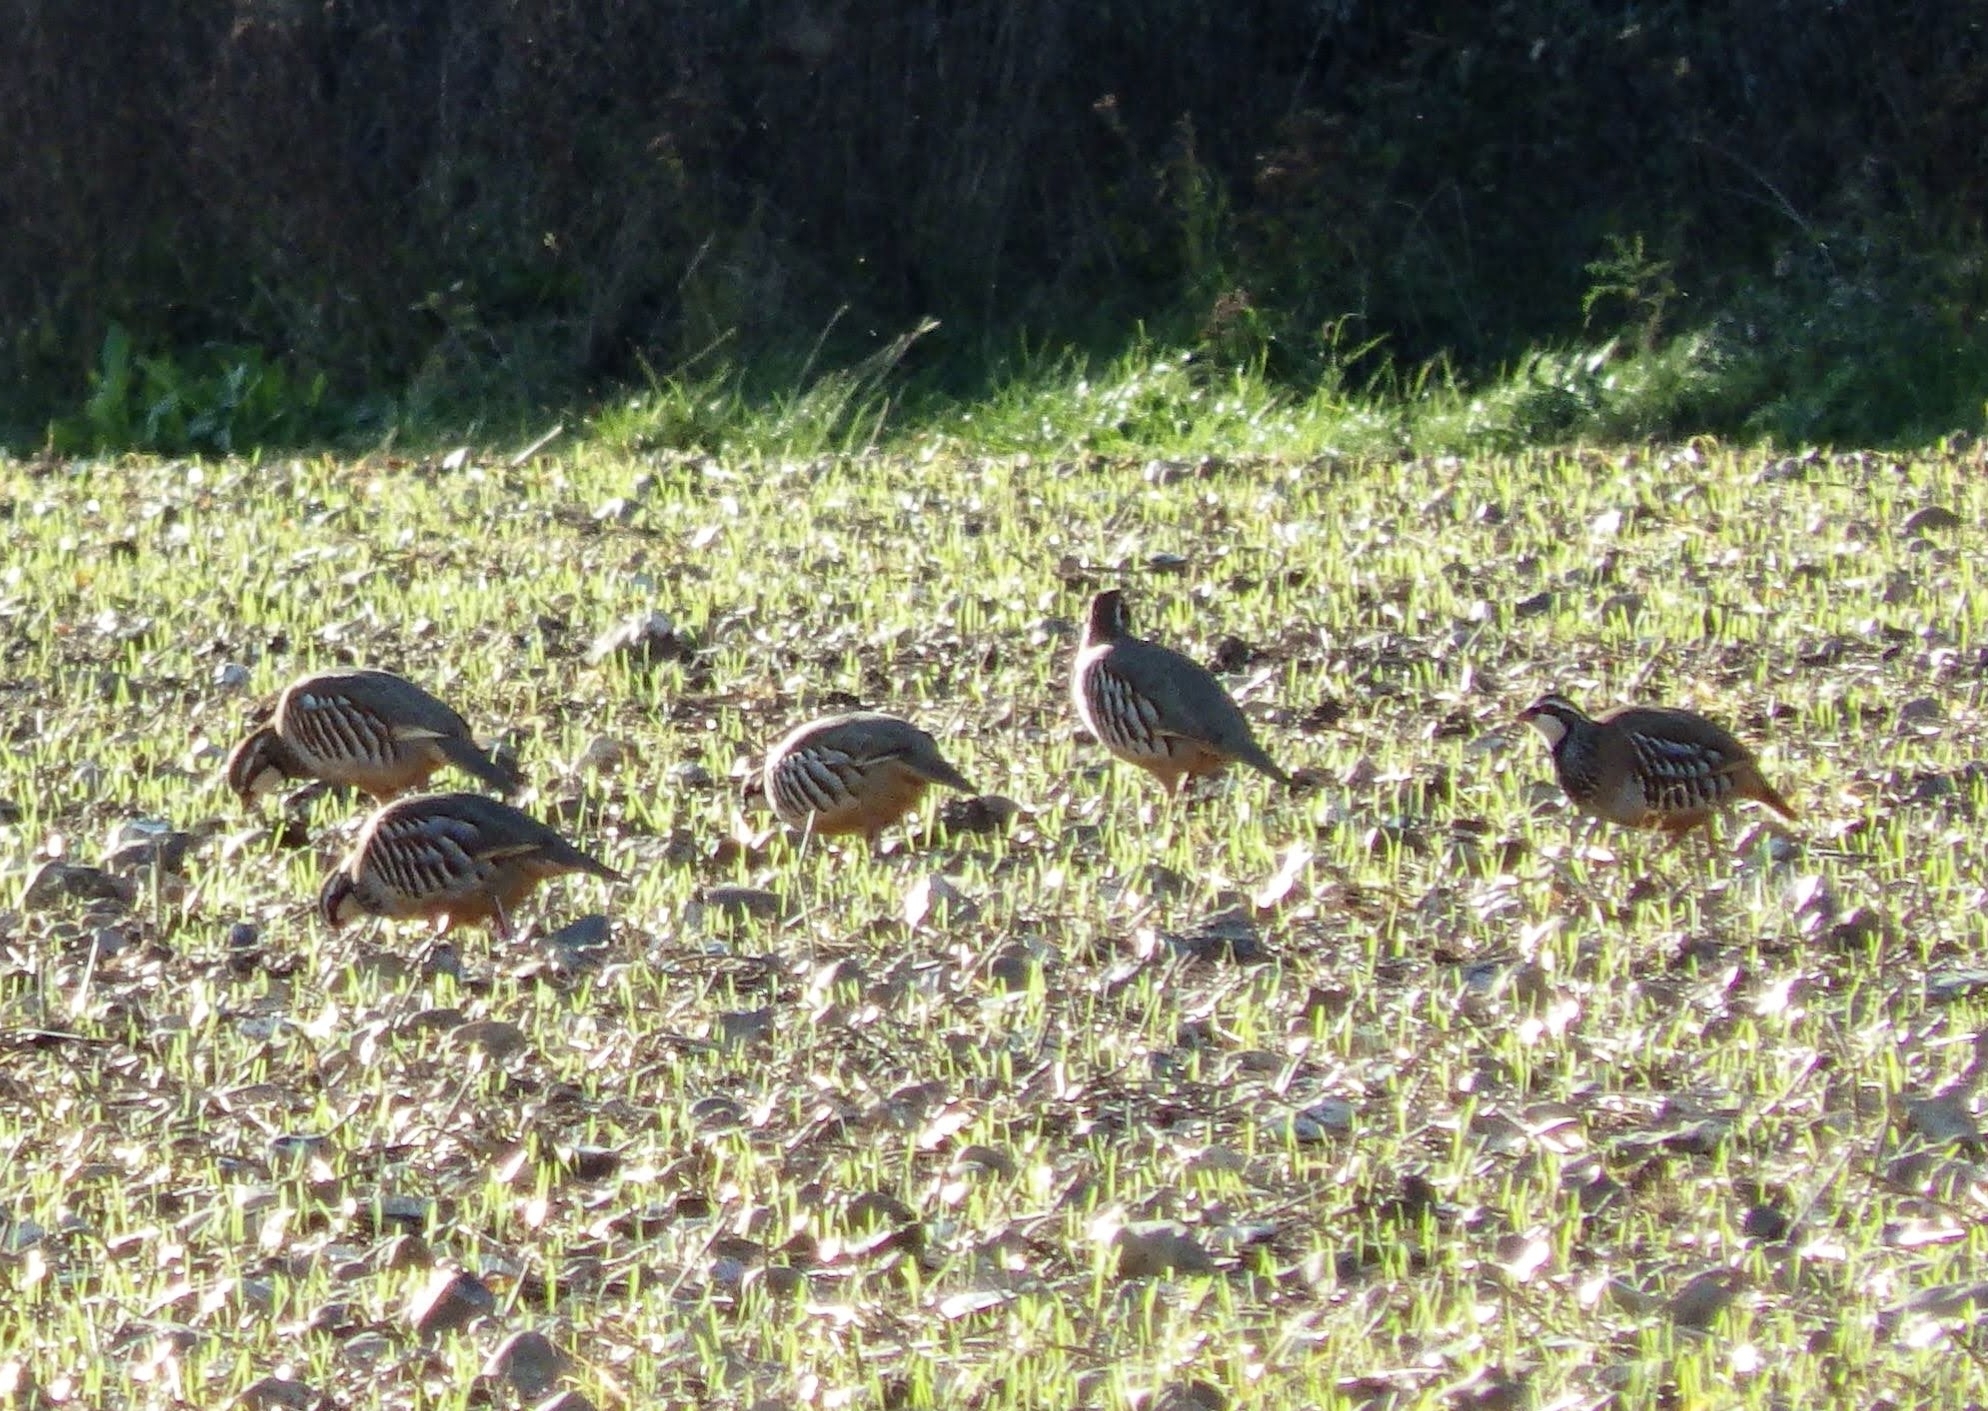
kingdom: Animalia
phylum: Chordata
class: Aves
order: Galliformes
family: Phasianidae
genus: Alectoris
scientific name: Alectoris rufa
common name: Red-legged partridge
